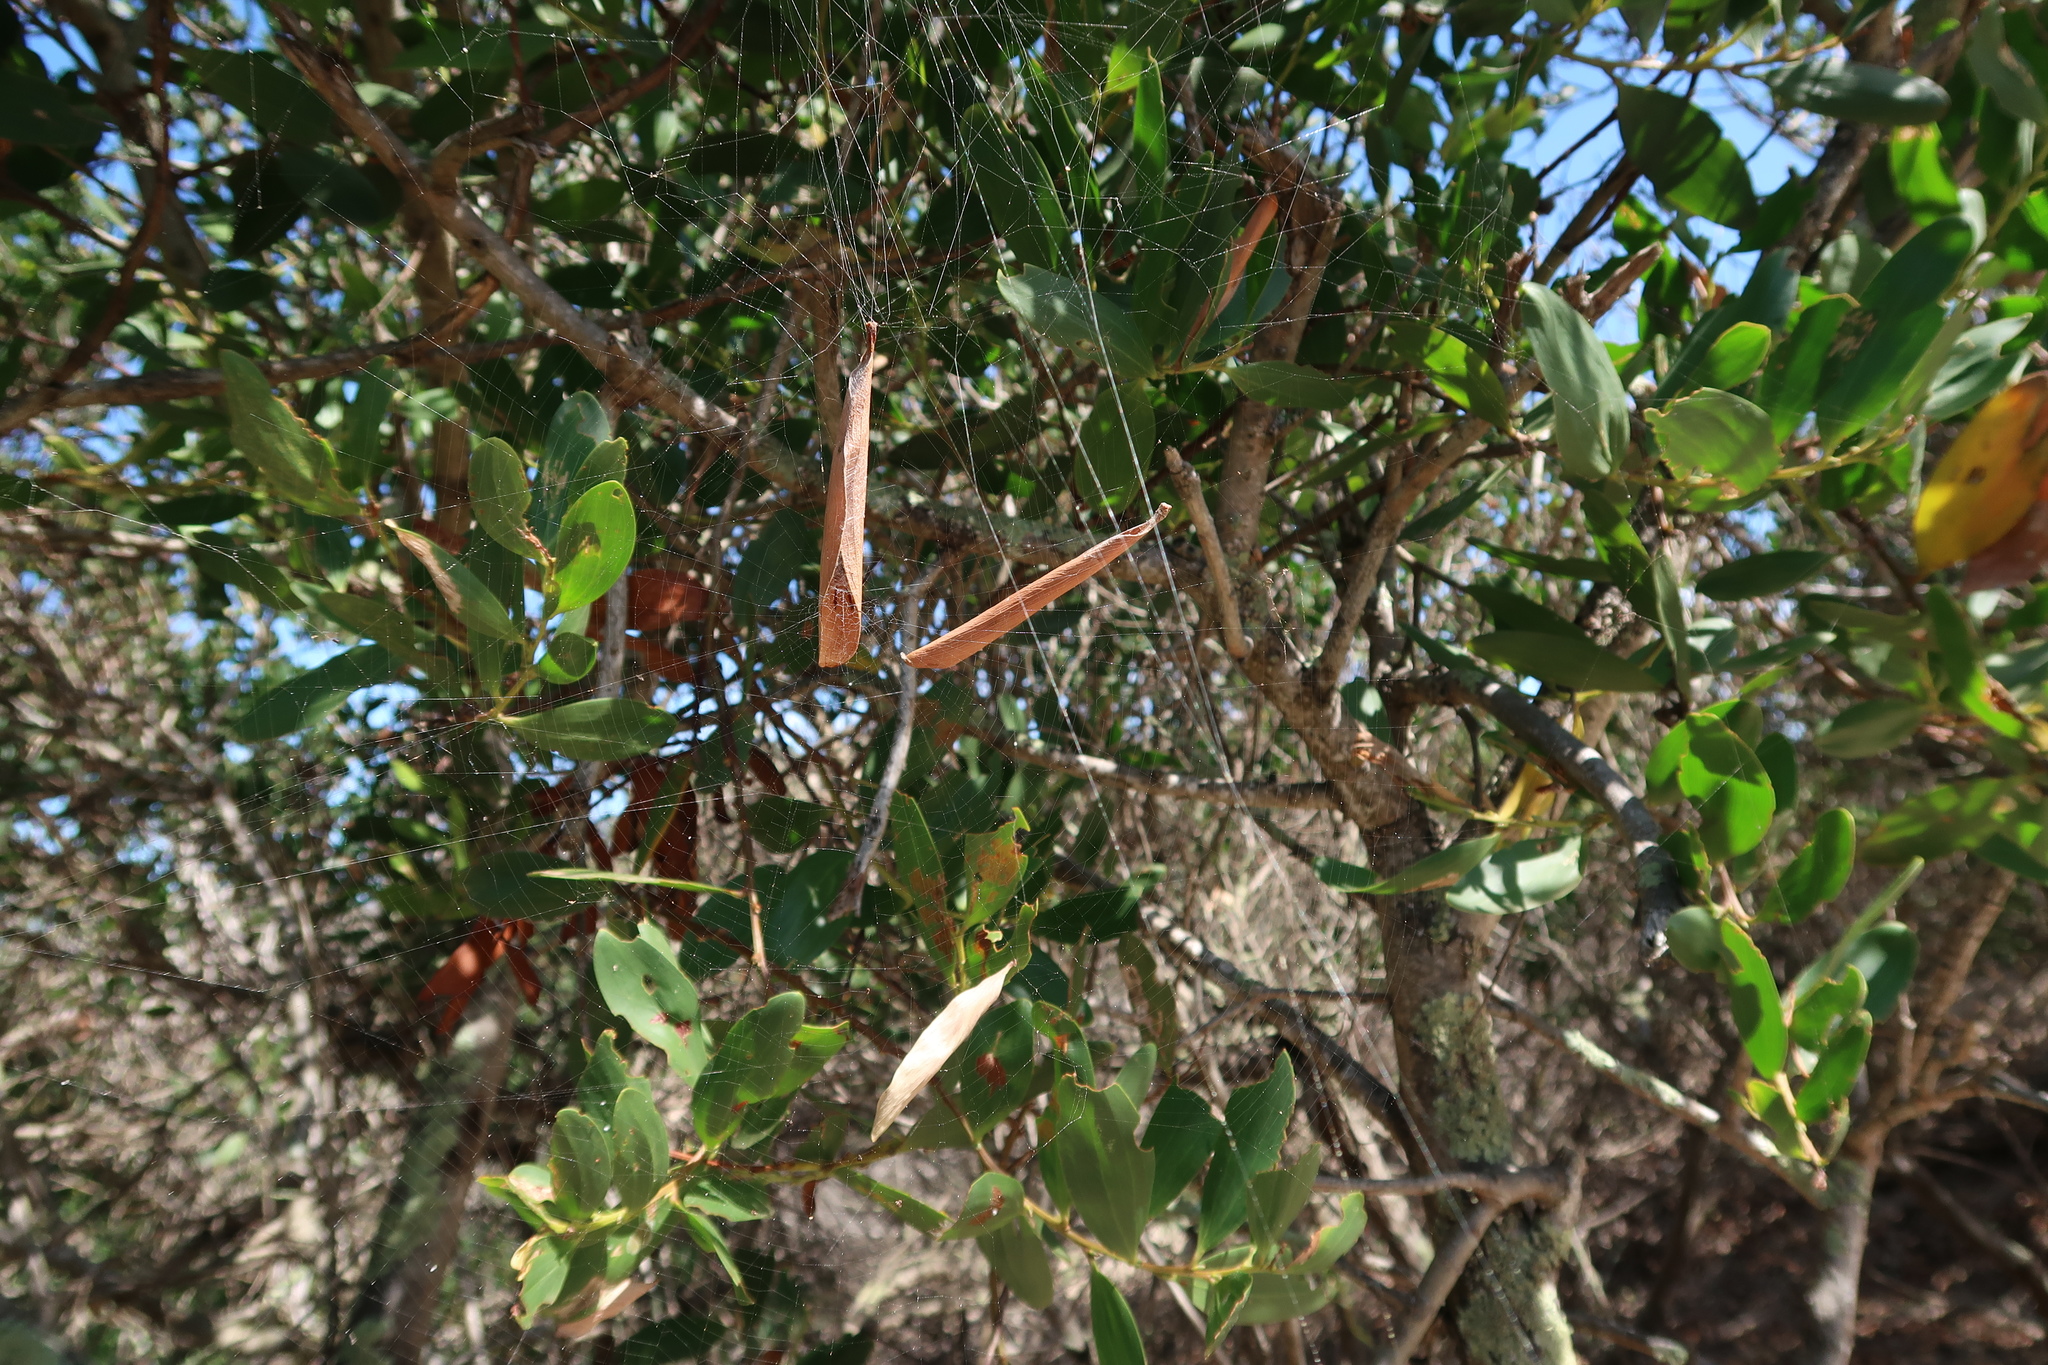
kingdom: Animalia
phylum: Arthropoda
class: Arachnida
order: Araneae
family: Araneidae
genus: Phonognatha
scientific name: Phonognatha graeffei
